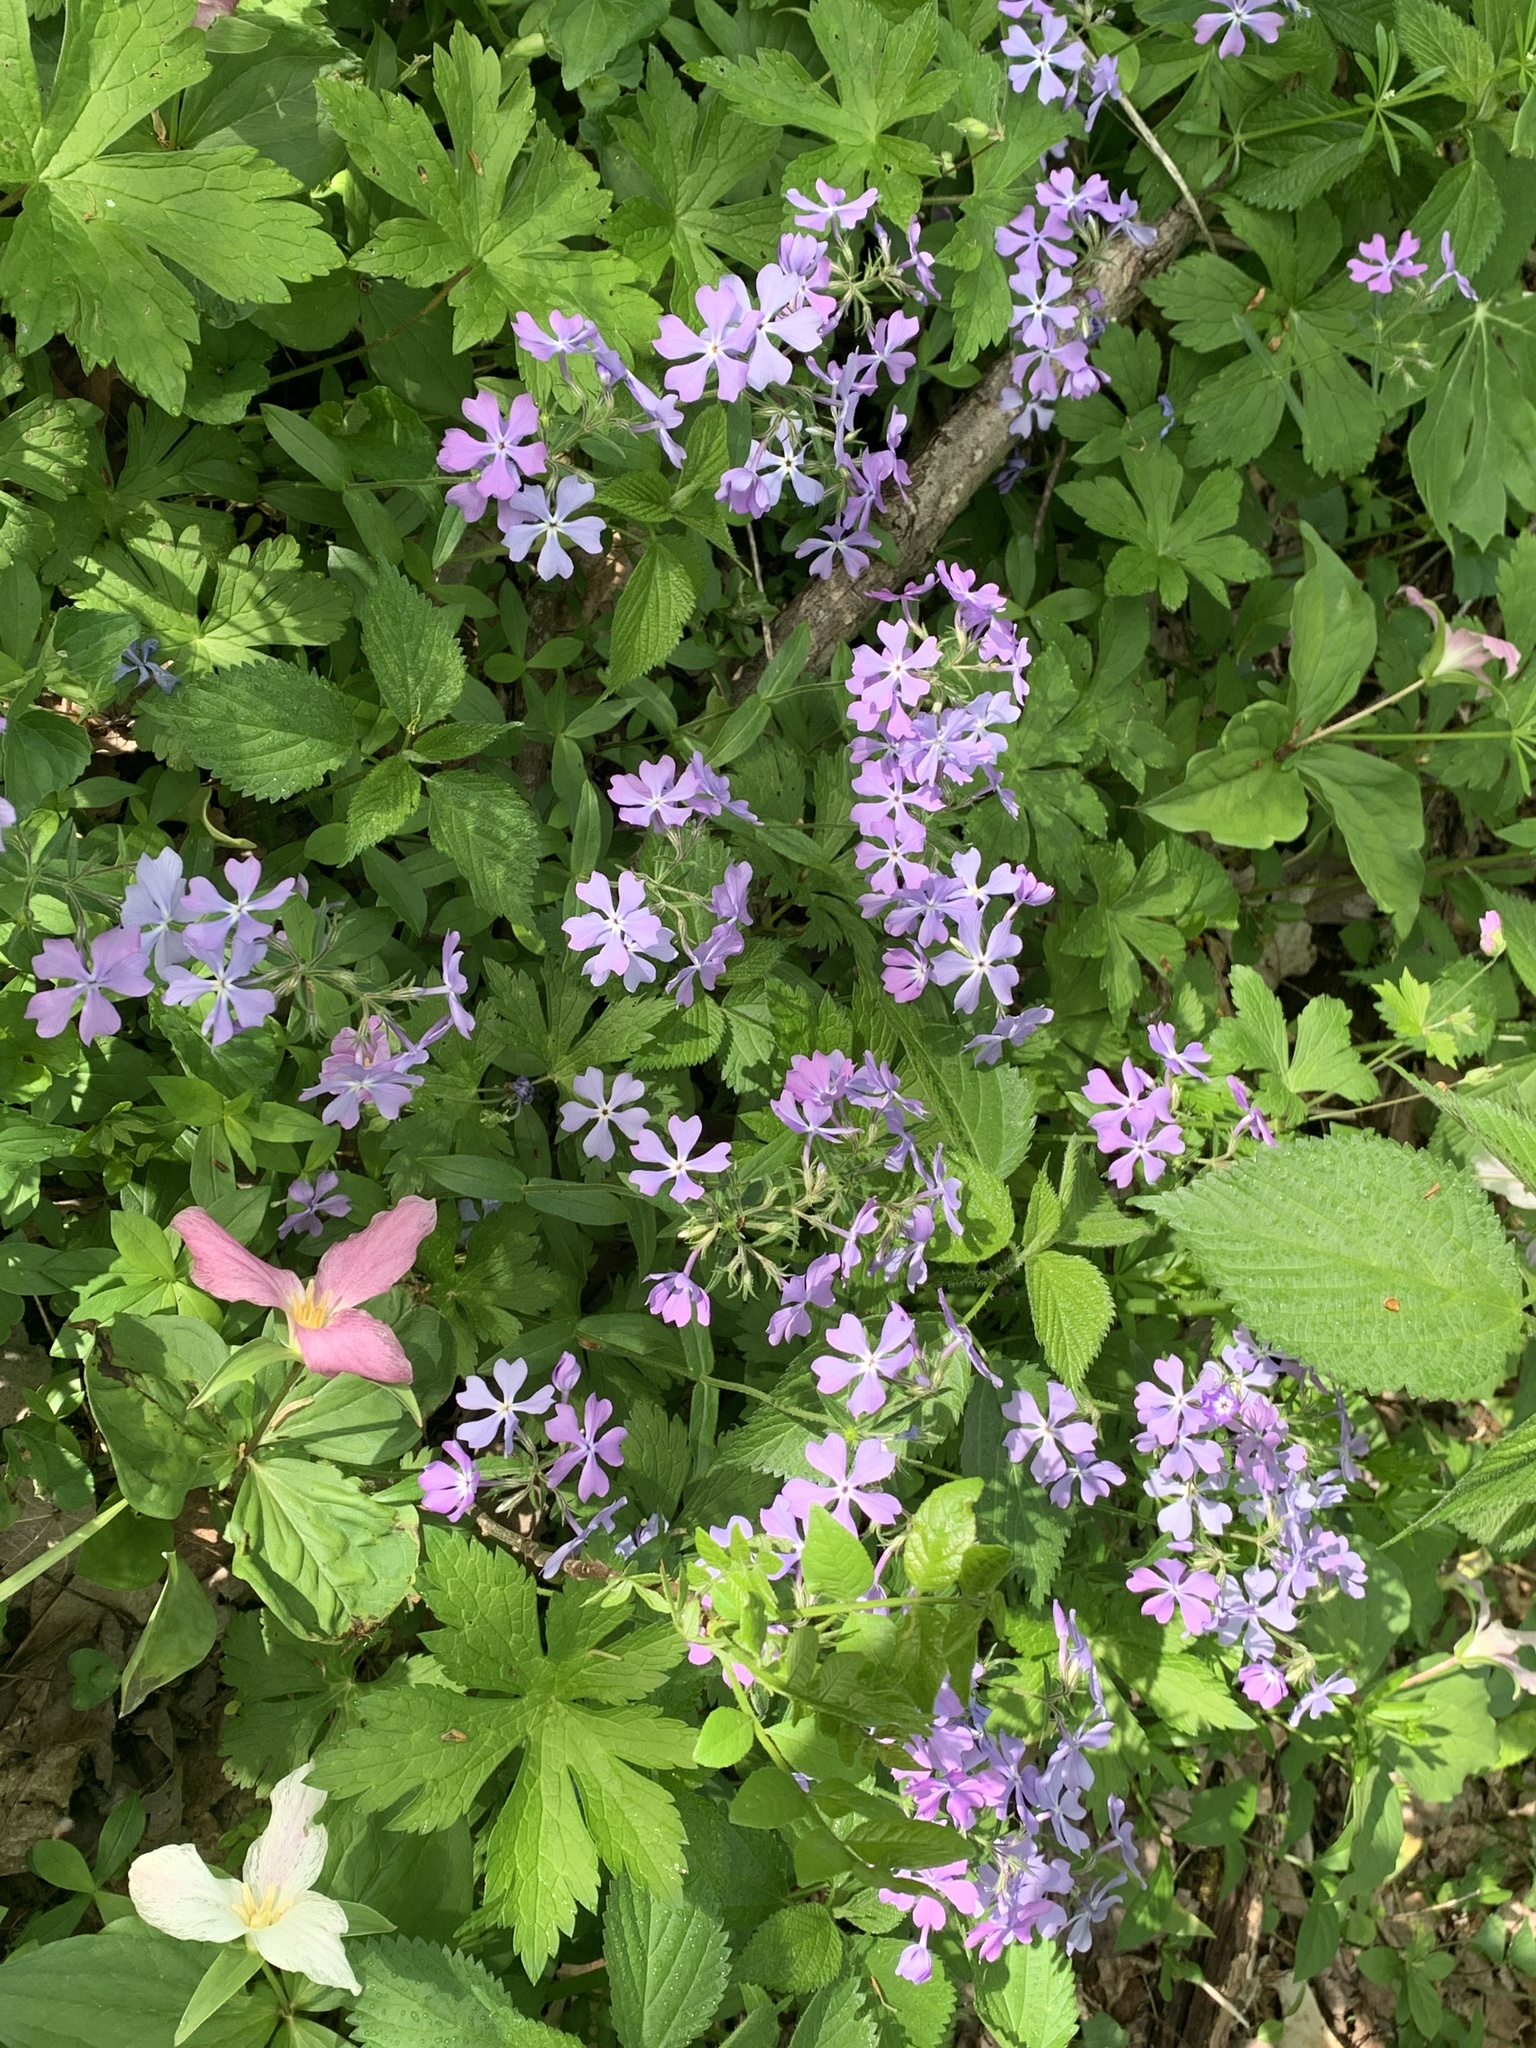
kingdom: Plantae
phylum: Tracheophyta
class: Magnoliopsida
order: Ericales
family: Polemoniaceae
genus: Phlox
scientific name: Phlox divaricata
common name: Blue phlox
